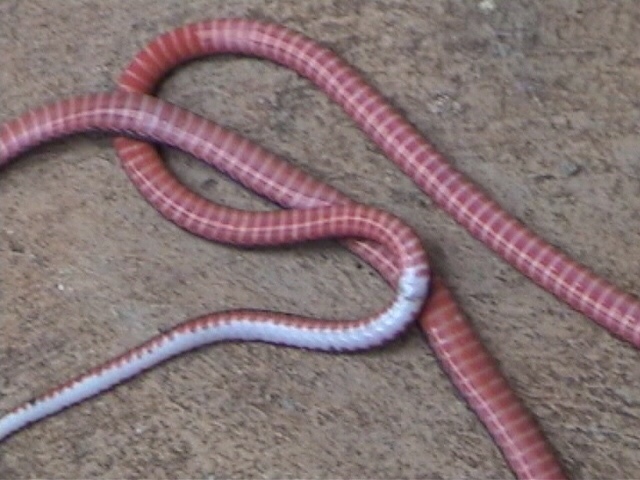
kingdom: Animalia
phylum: Chordata
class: Squamata
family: Elapidae
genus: Calliophis
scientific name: Calliophis nigrescens
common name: Black coral snake
